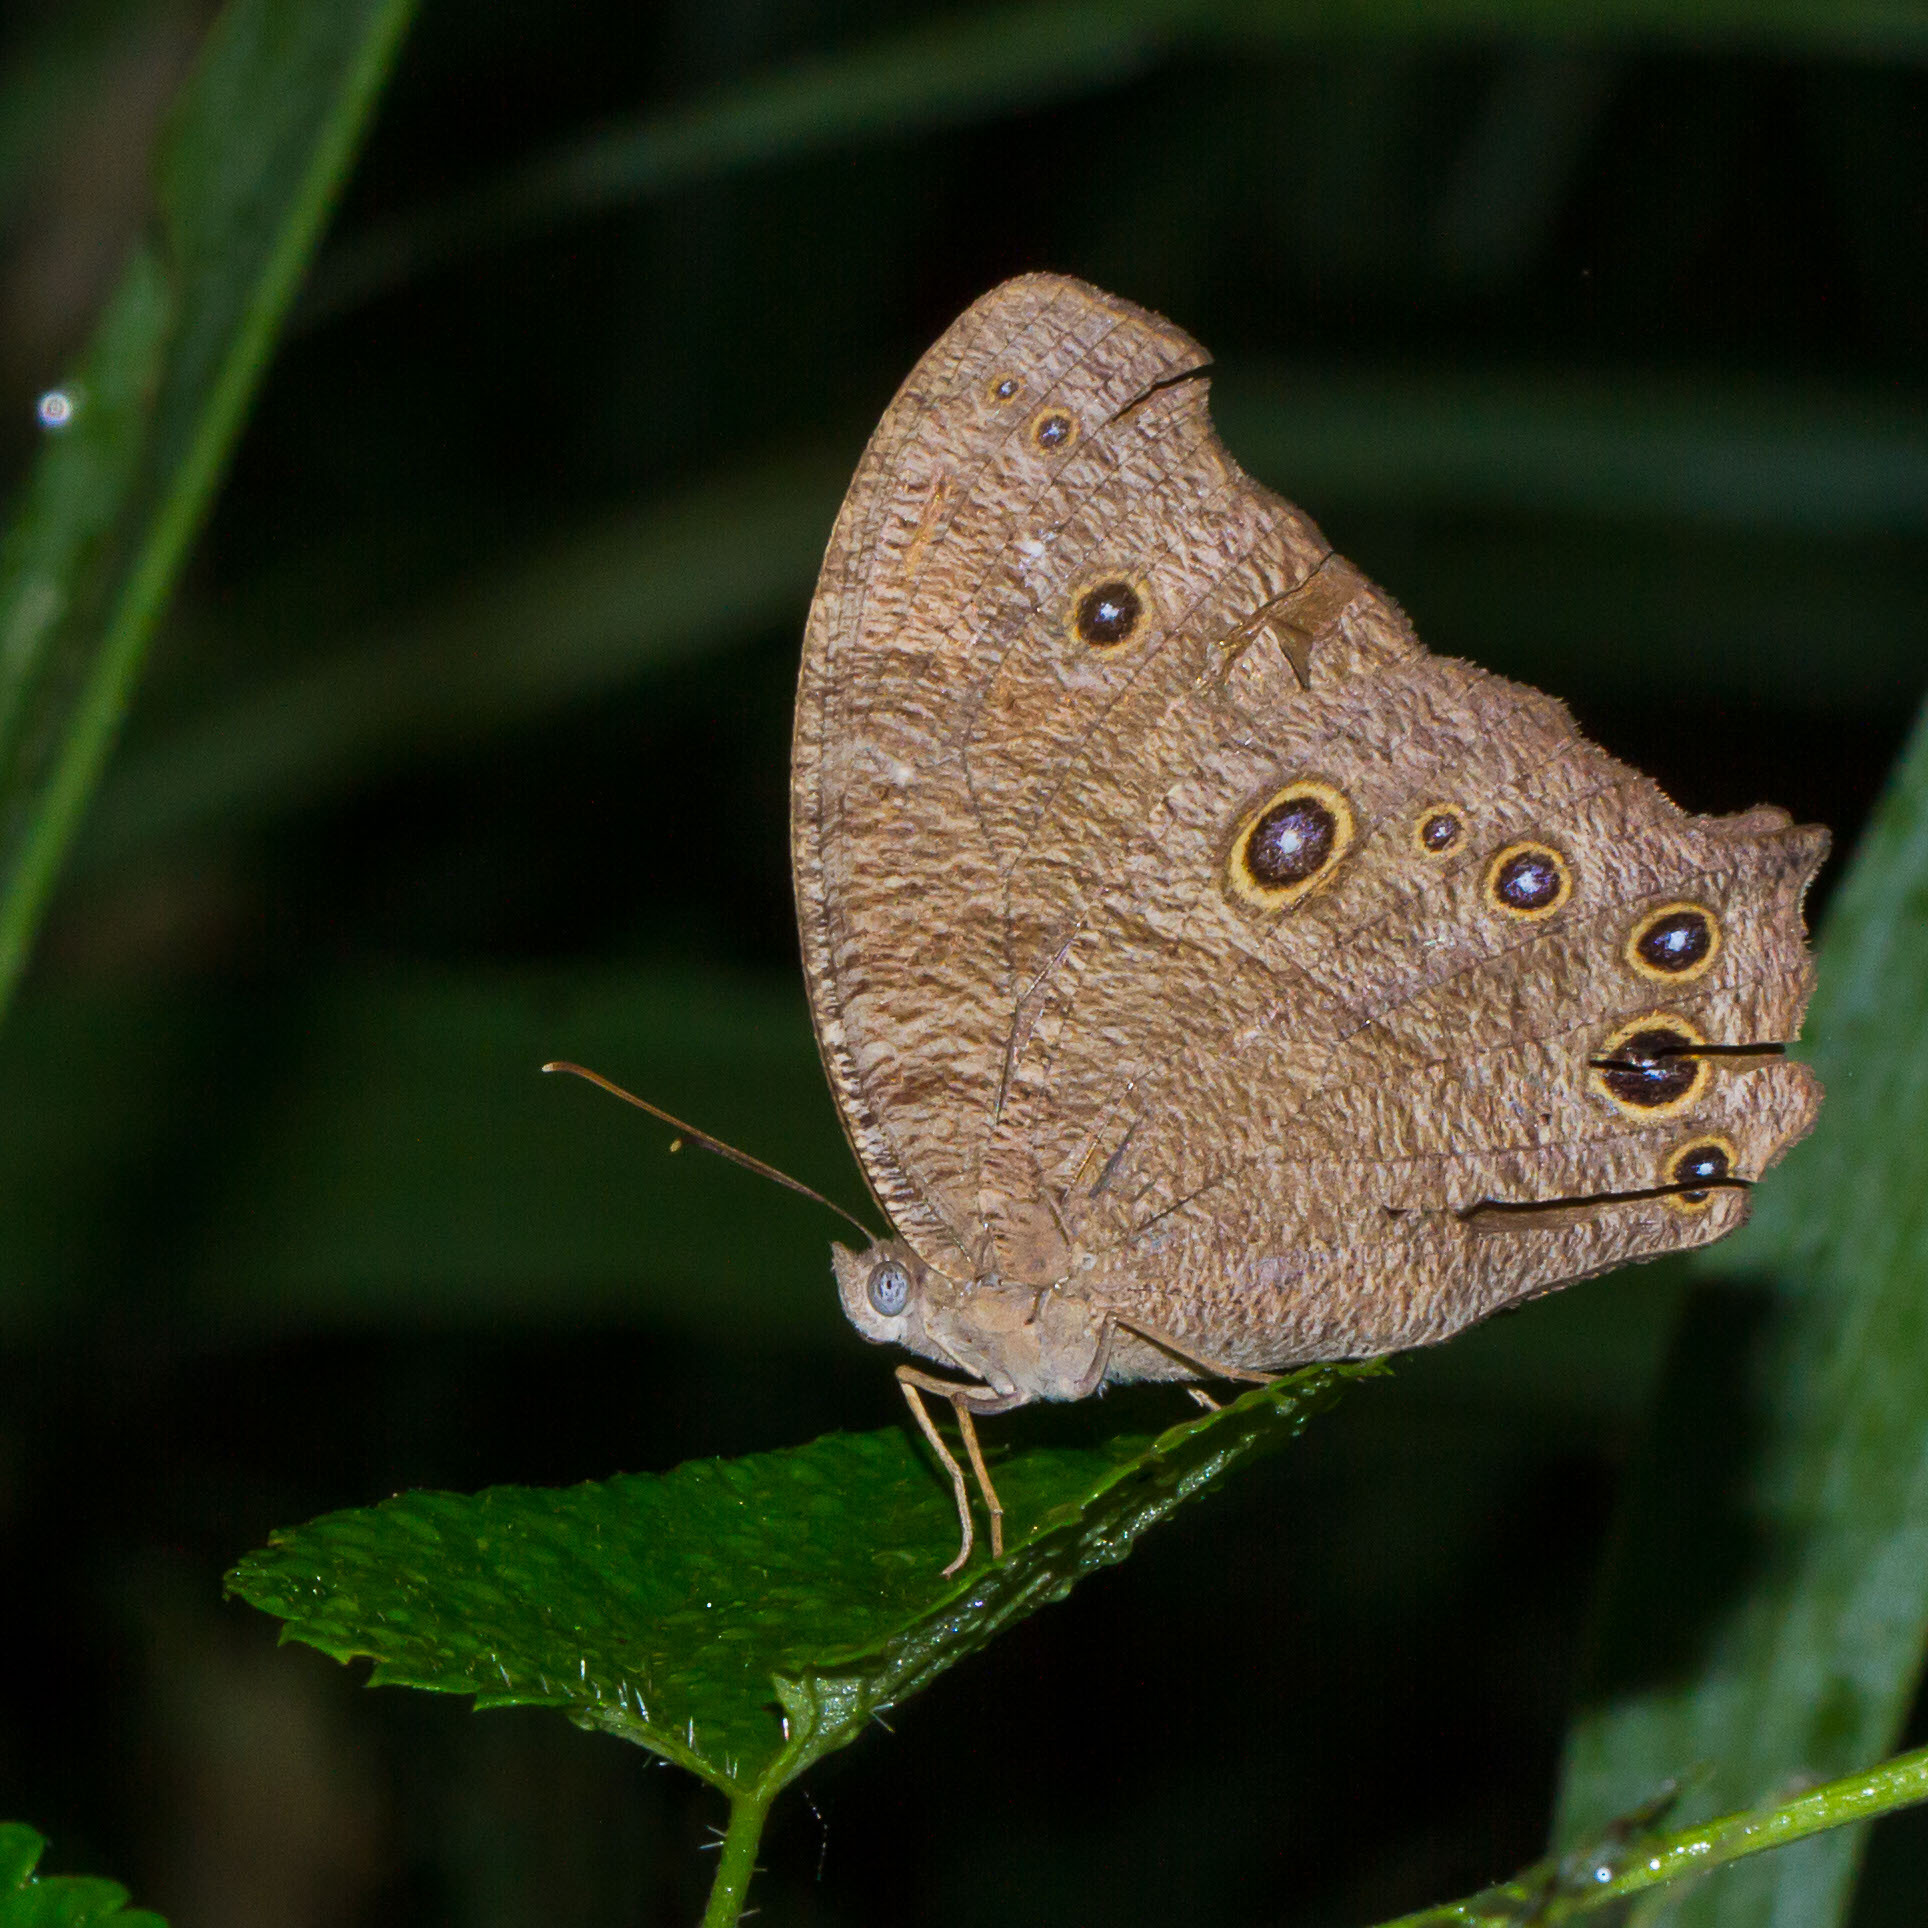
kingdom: Animalia
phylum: Arthropoda
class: Insecta
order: Lepidoptera
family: Nymphalidae
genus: Melanitis
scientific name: Melanitis leda
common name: Twilight brown
